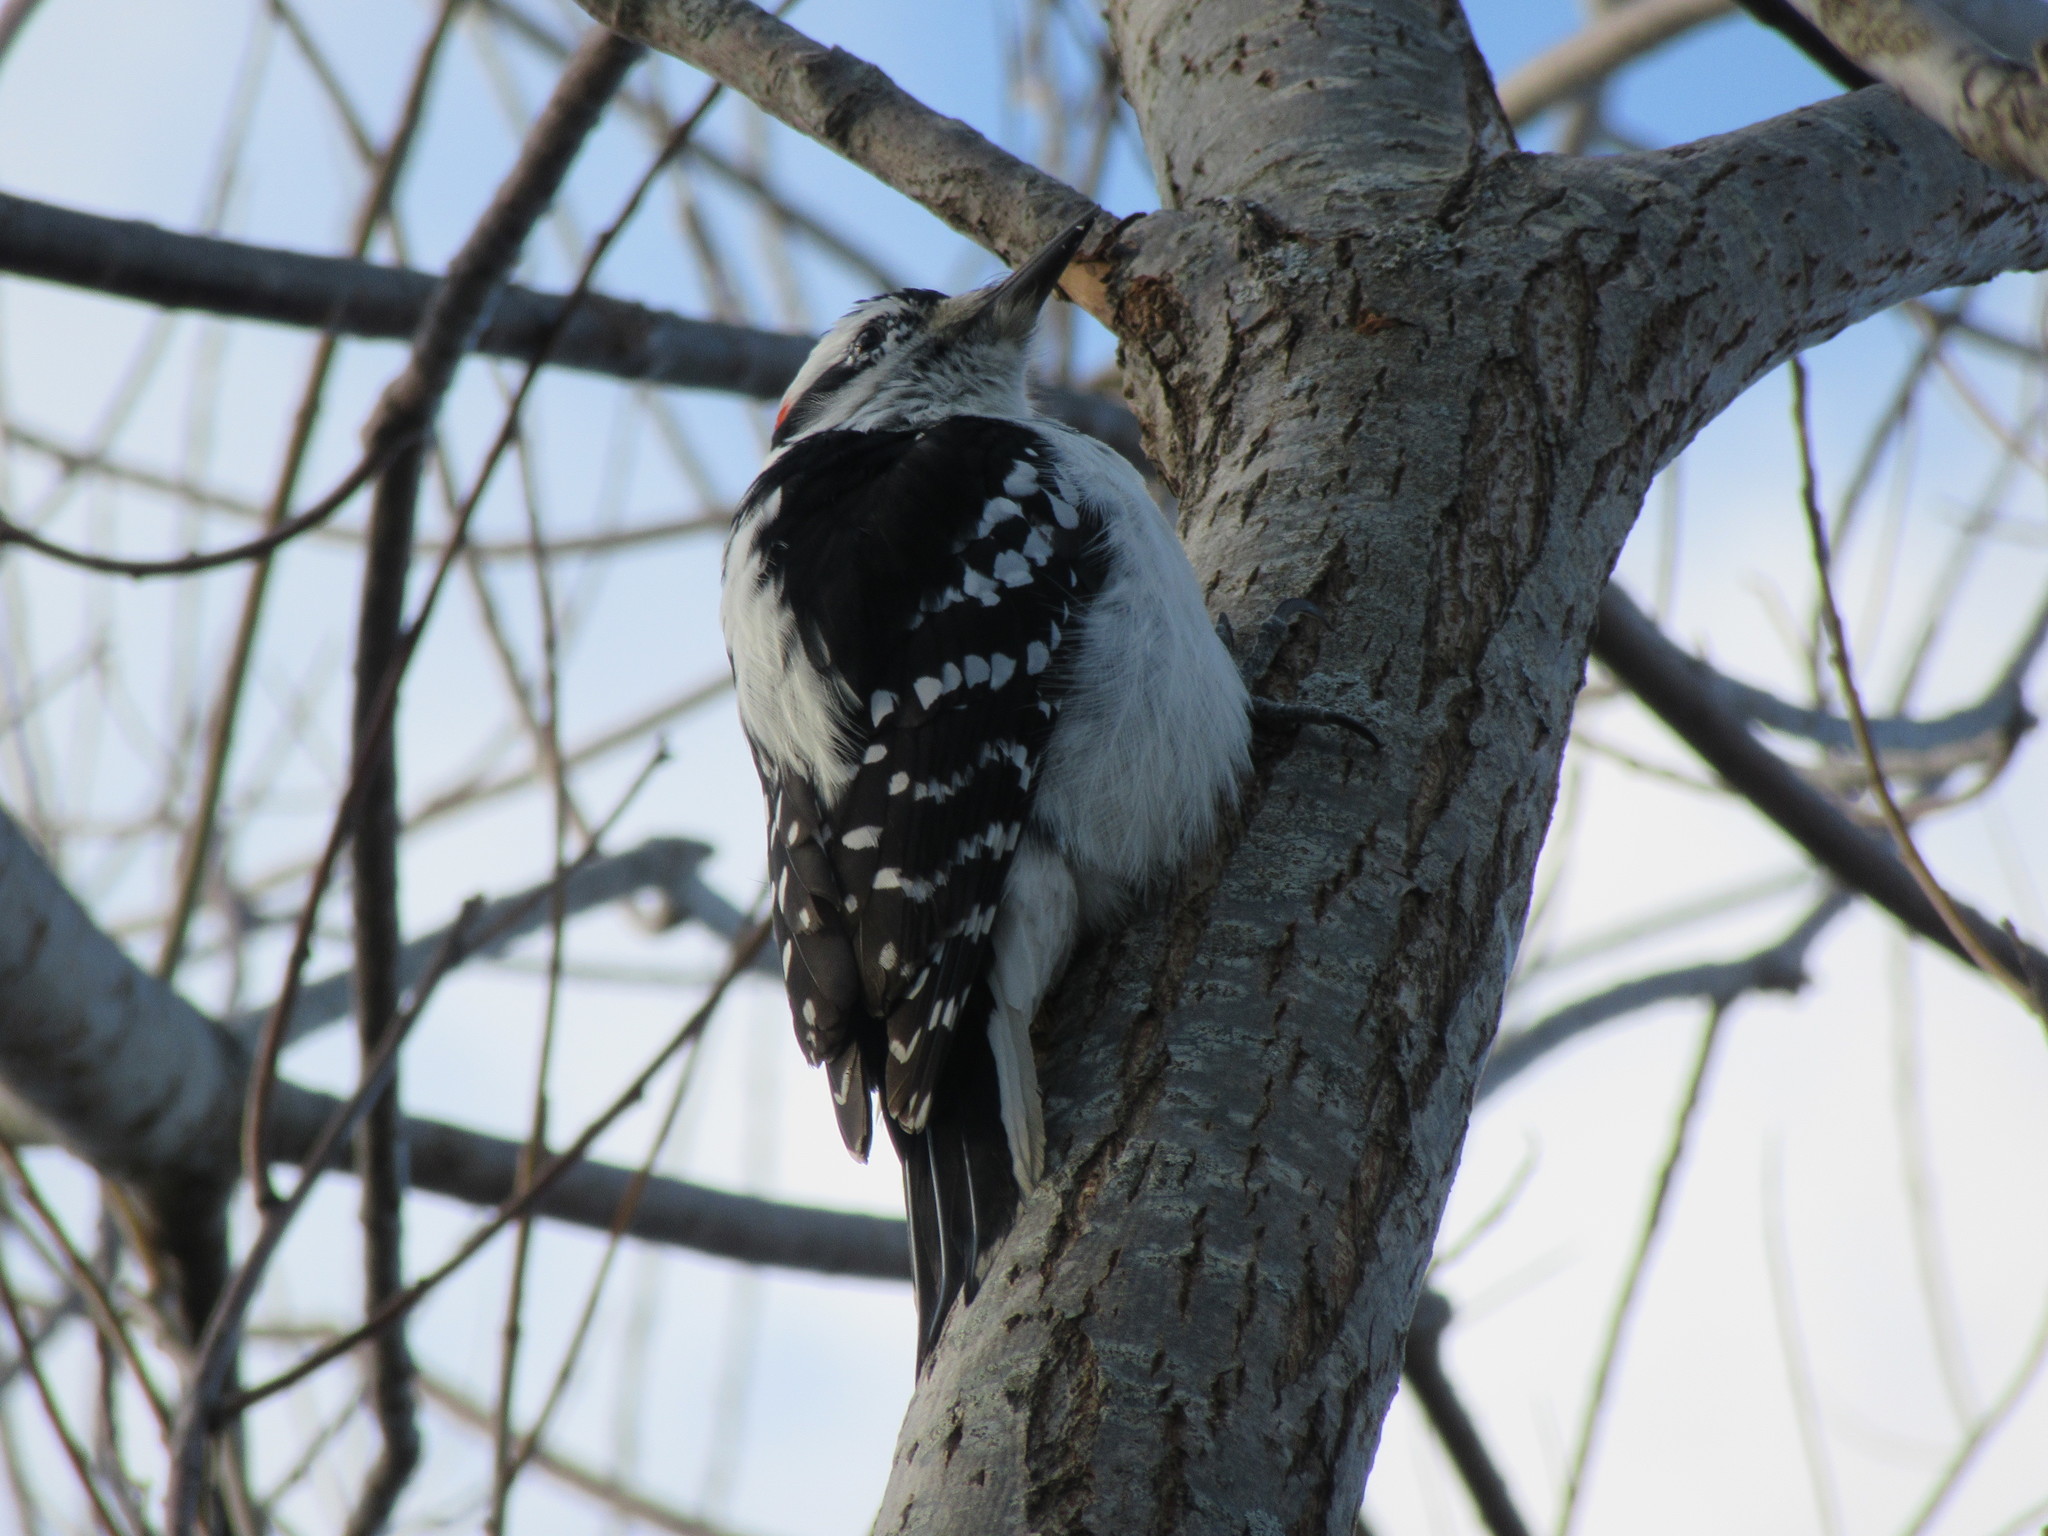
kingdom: Animalia
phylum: Chordata
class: Aves
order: Piciformes
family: Picidae
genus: Leuconotopicus
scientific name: Leuconotopicus villosus
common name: Hairy woodpecker
